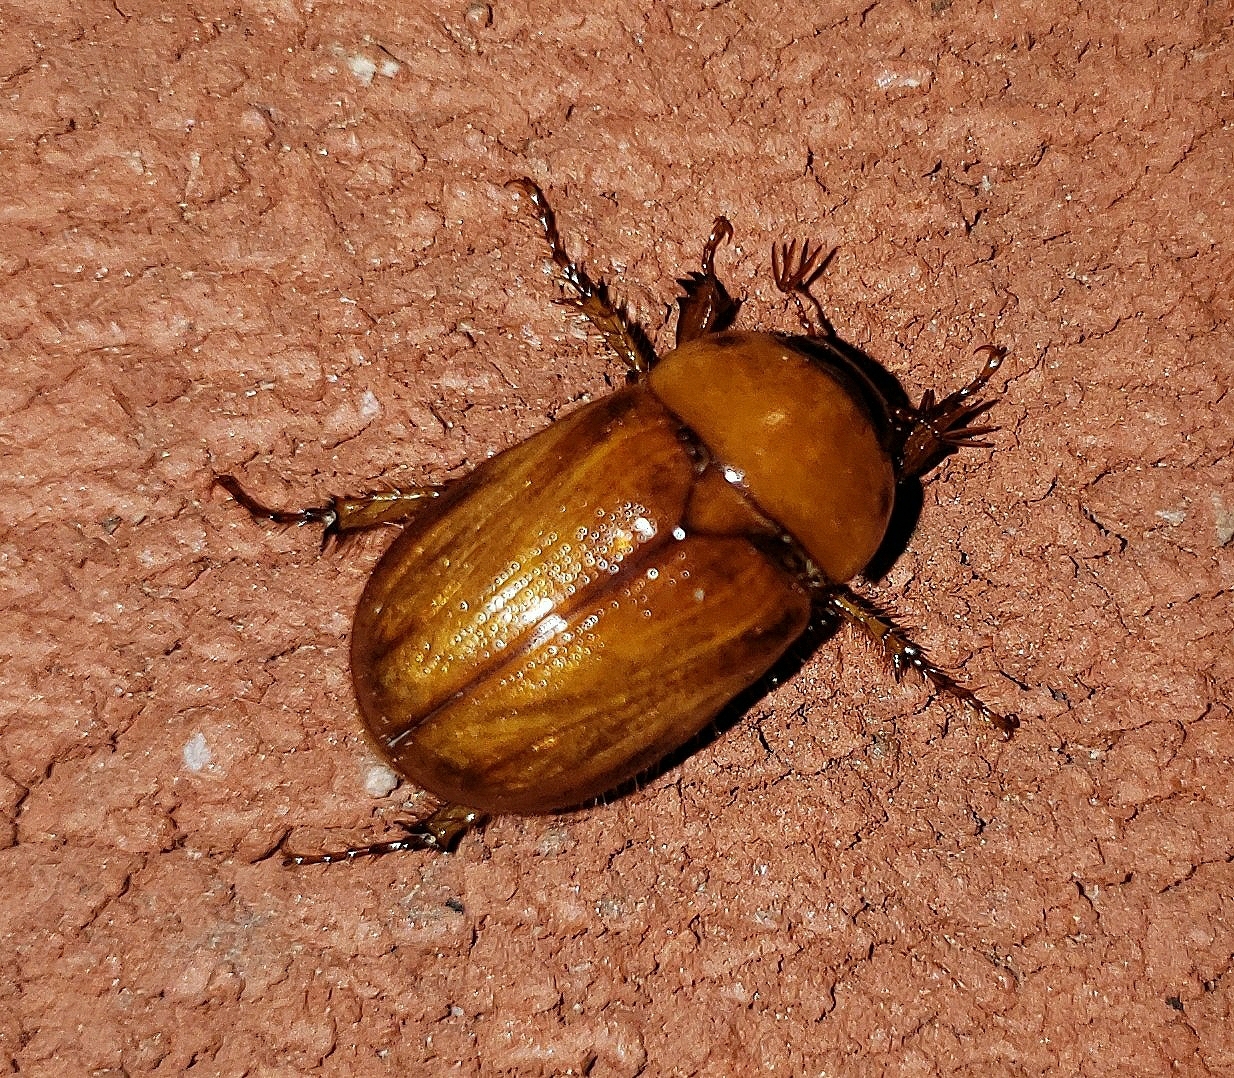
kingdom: Animalia
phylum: Arthropoda
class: Insecta
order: Coleoptera
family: Scarabaeidae
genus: Cyclocephala
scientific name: Cyclocephala lurida
